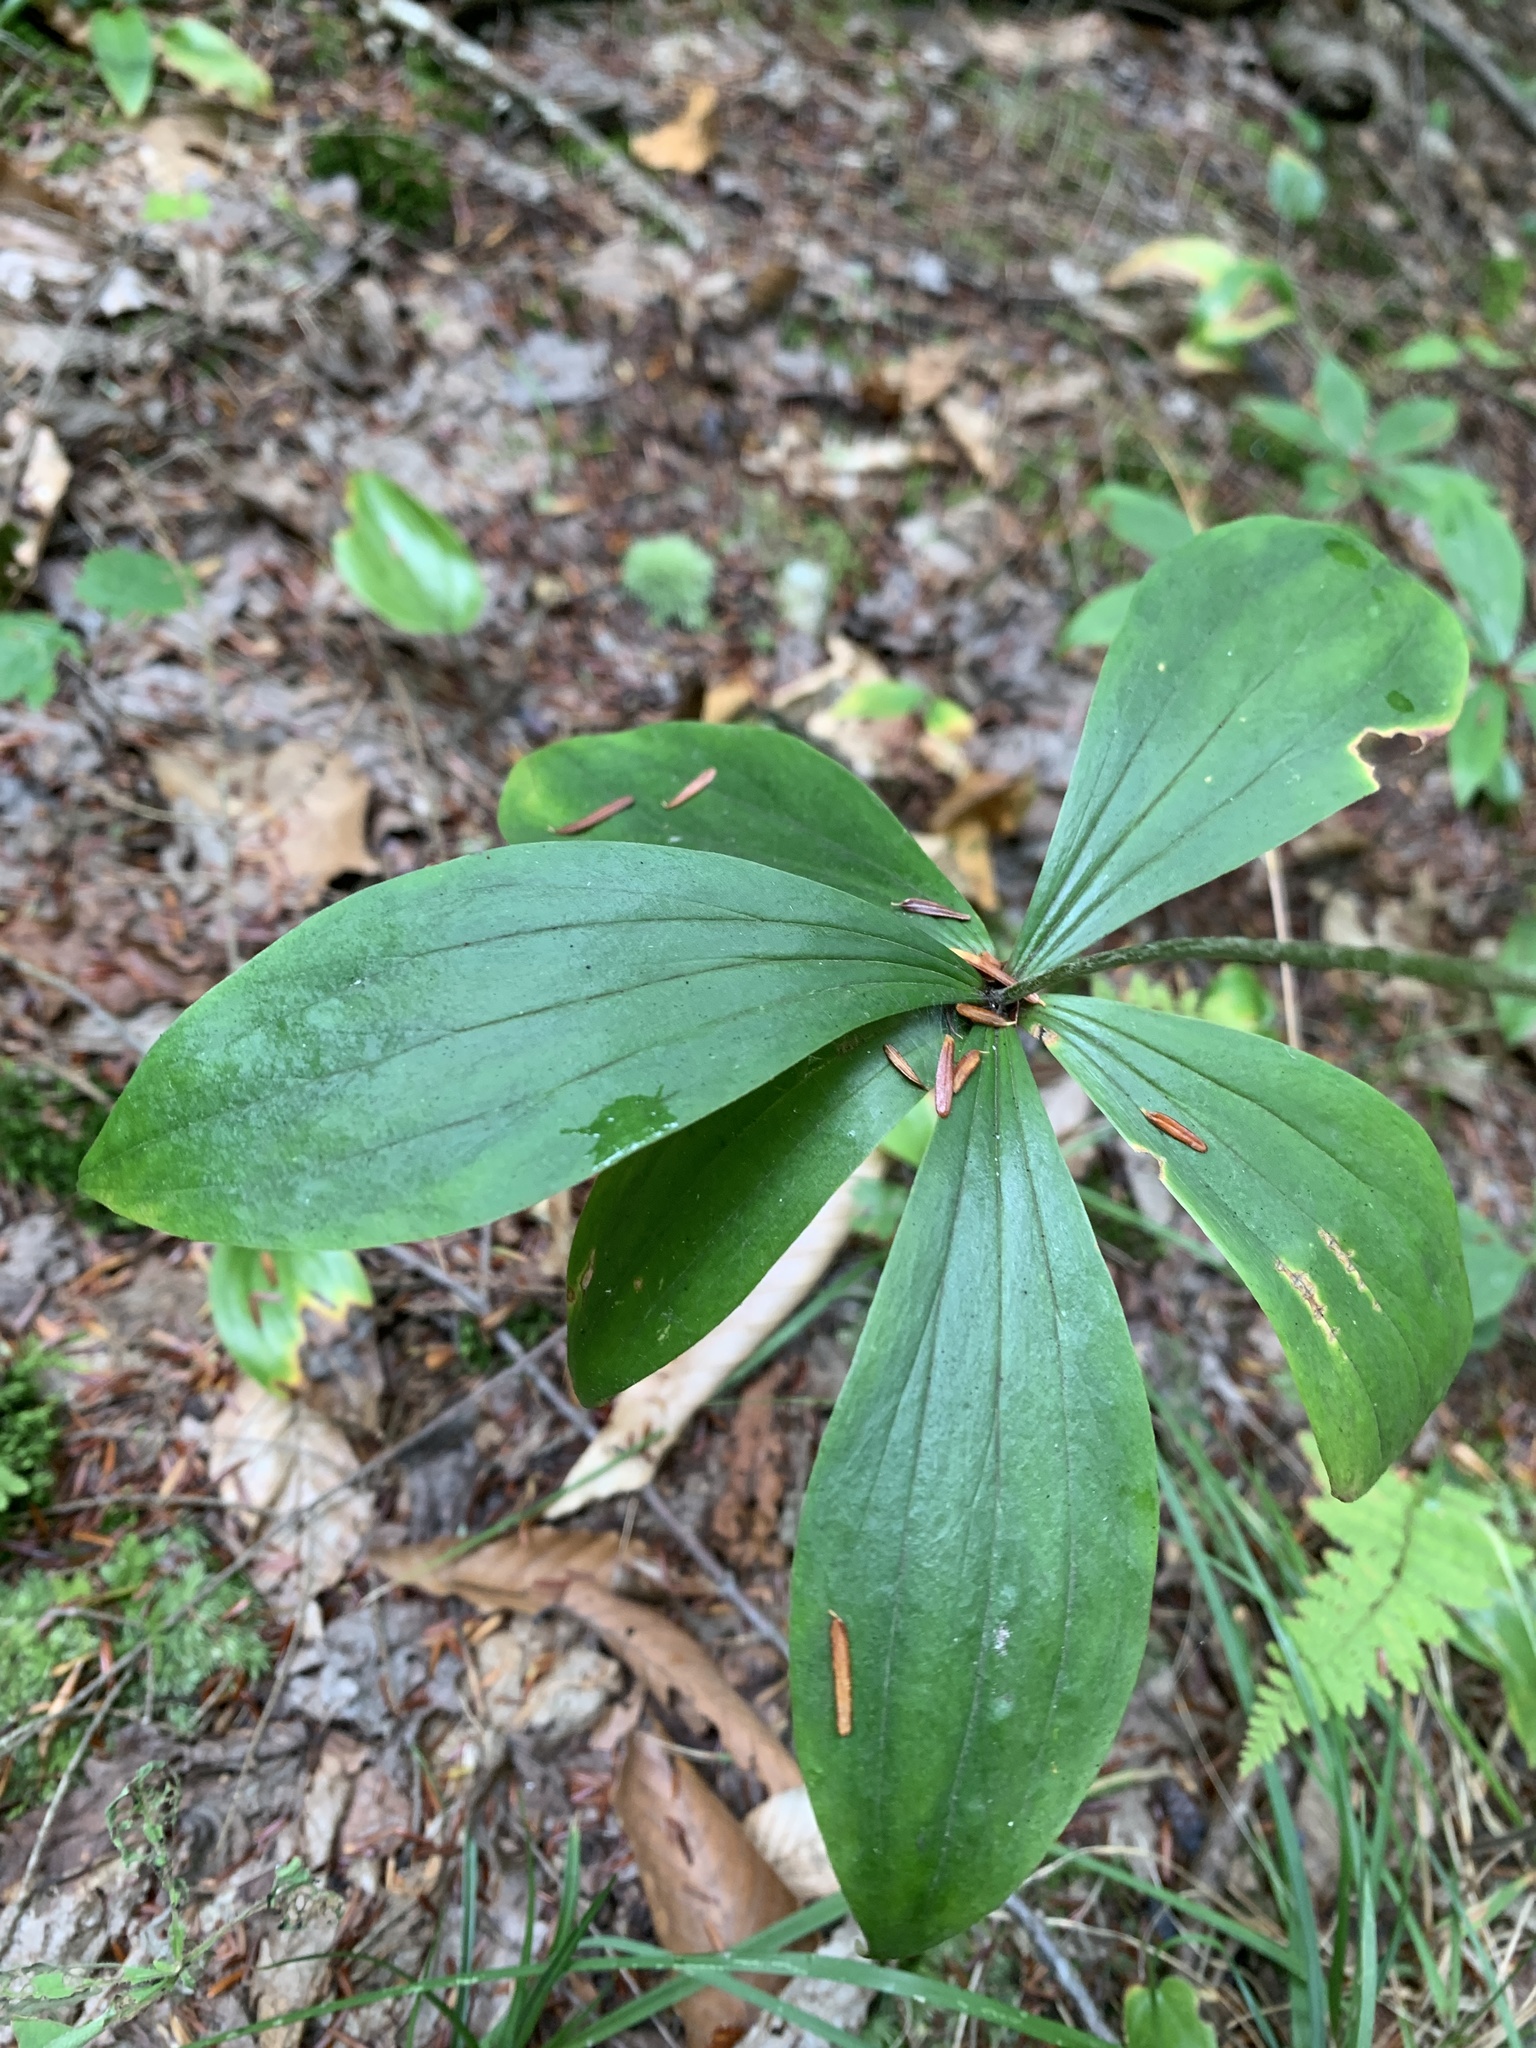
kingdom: Plantae
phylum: Tracheophyta
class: Liliopsida
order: Liliales
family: Liliaceae
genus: Medeola
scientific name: Medeola virginiana
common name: Indian cucumber-root
